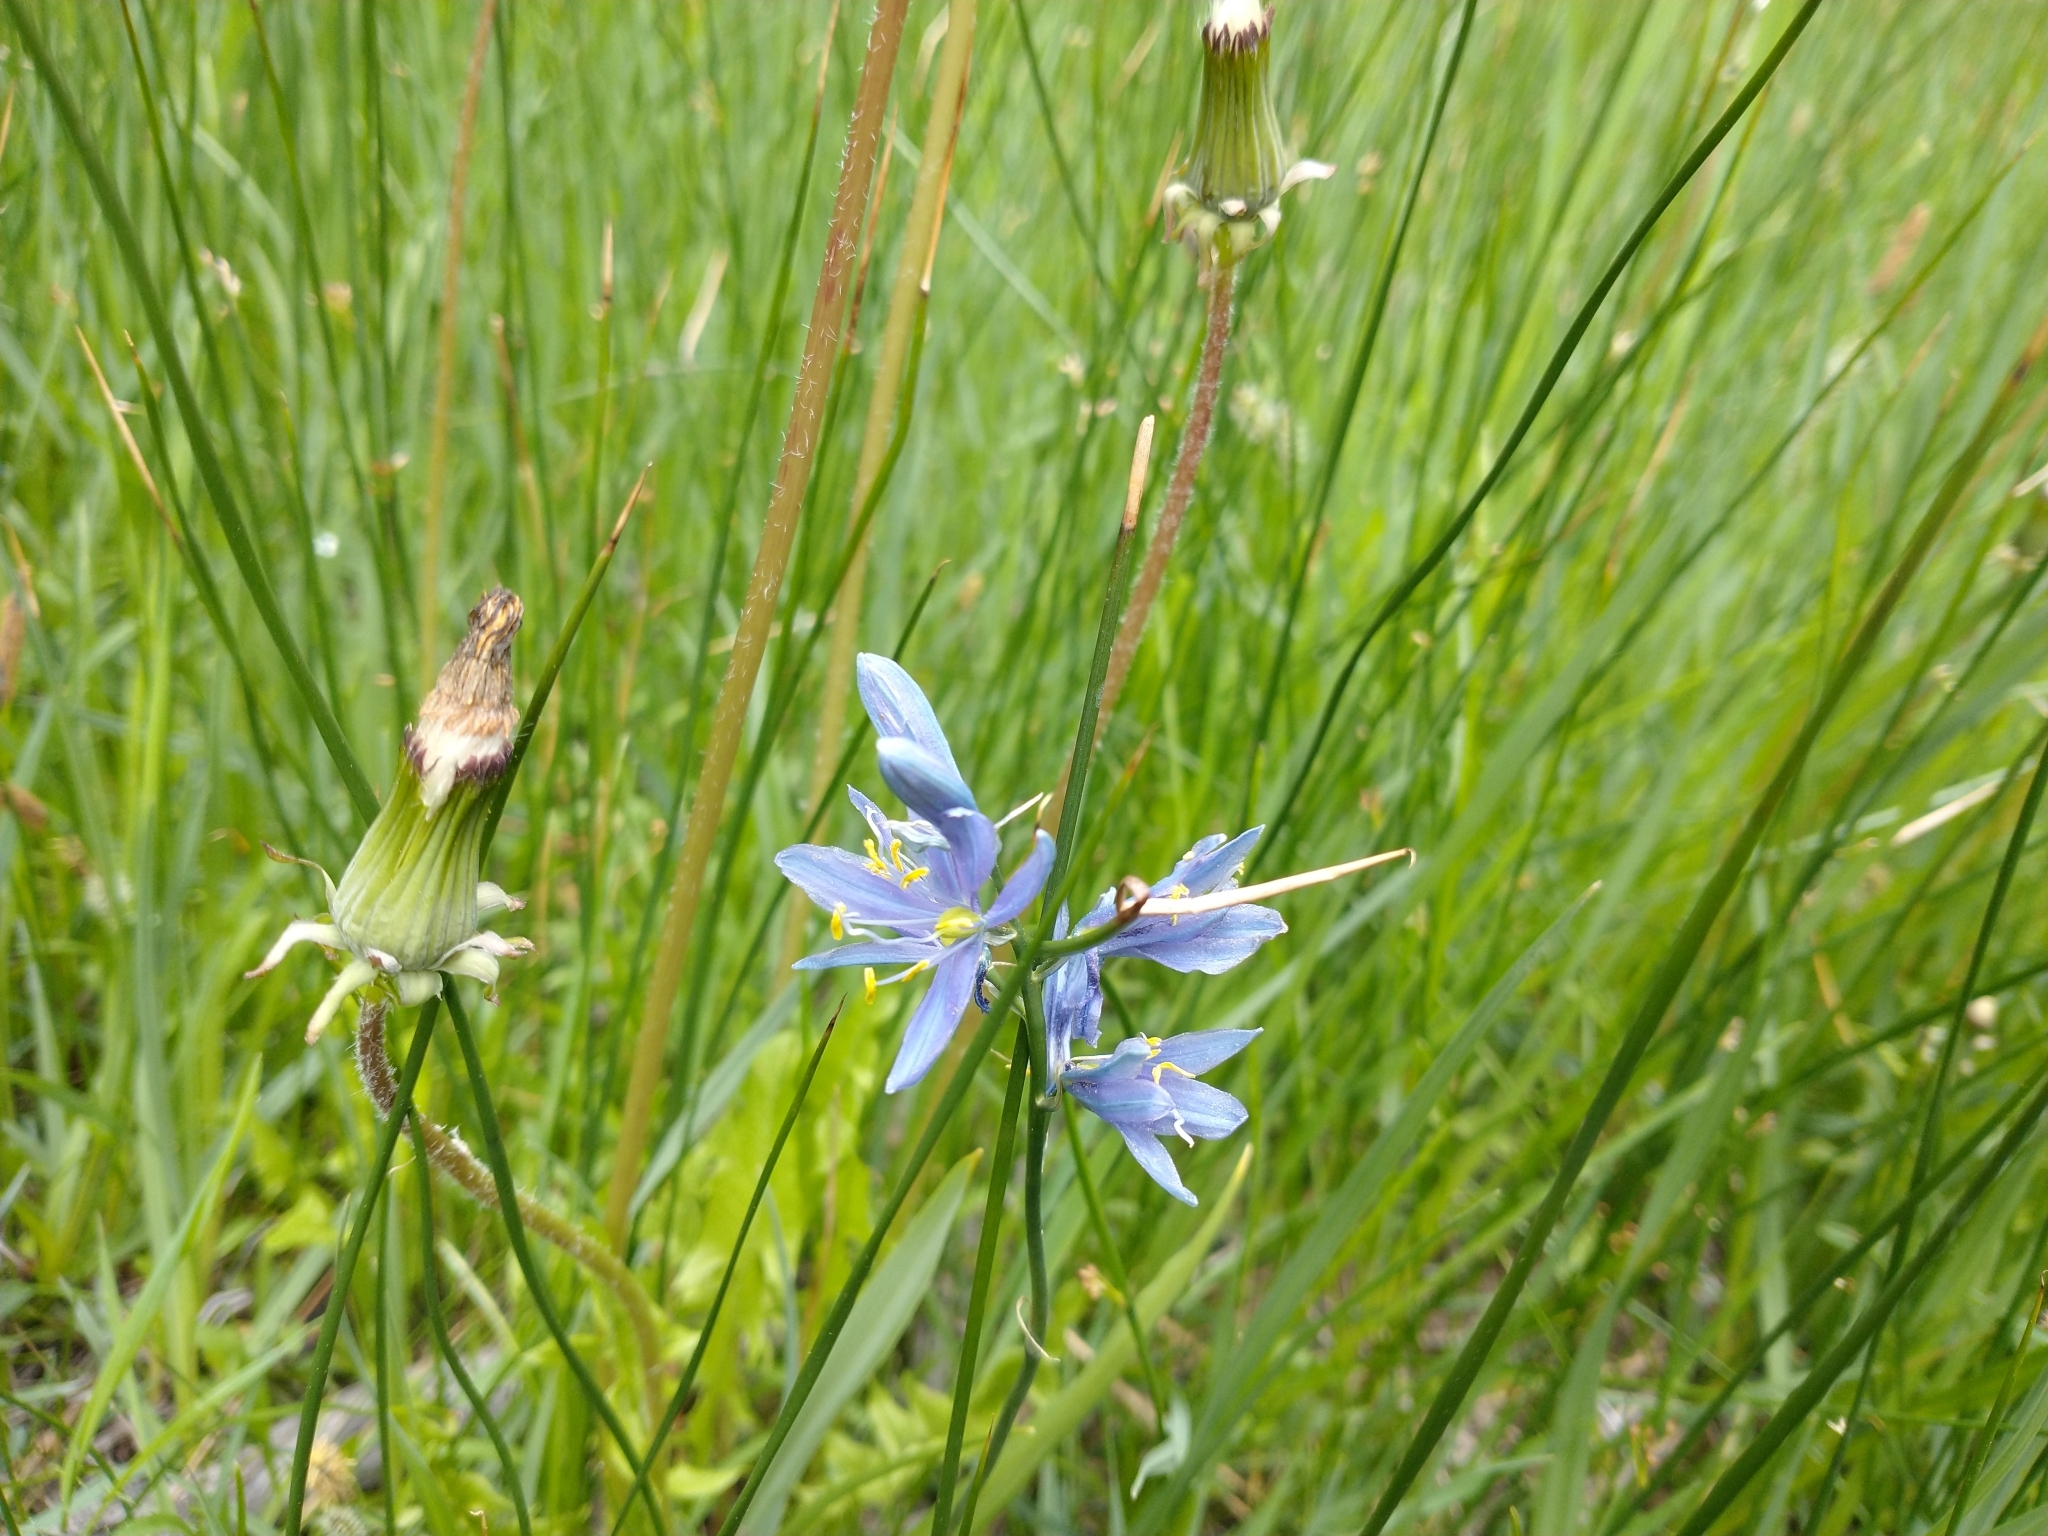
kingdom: Plantae
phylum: Tracheophyta
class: Liliopsida
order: Asparagales
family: Asparagaceae
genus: Camassia
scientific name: Camassia quamash
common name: Common camas
